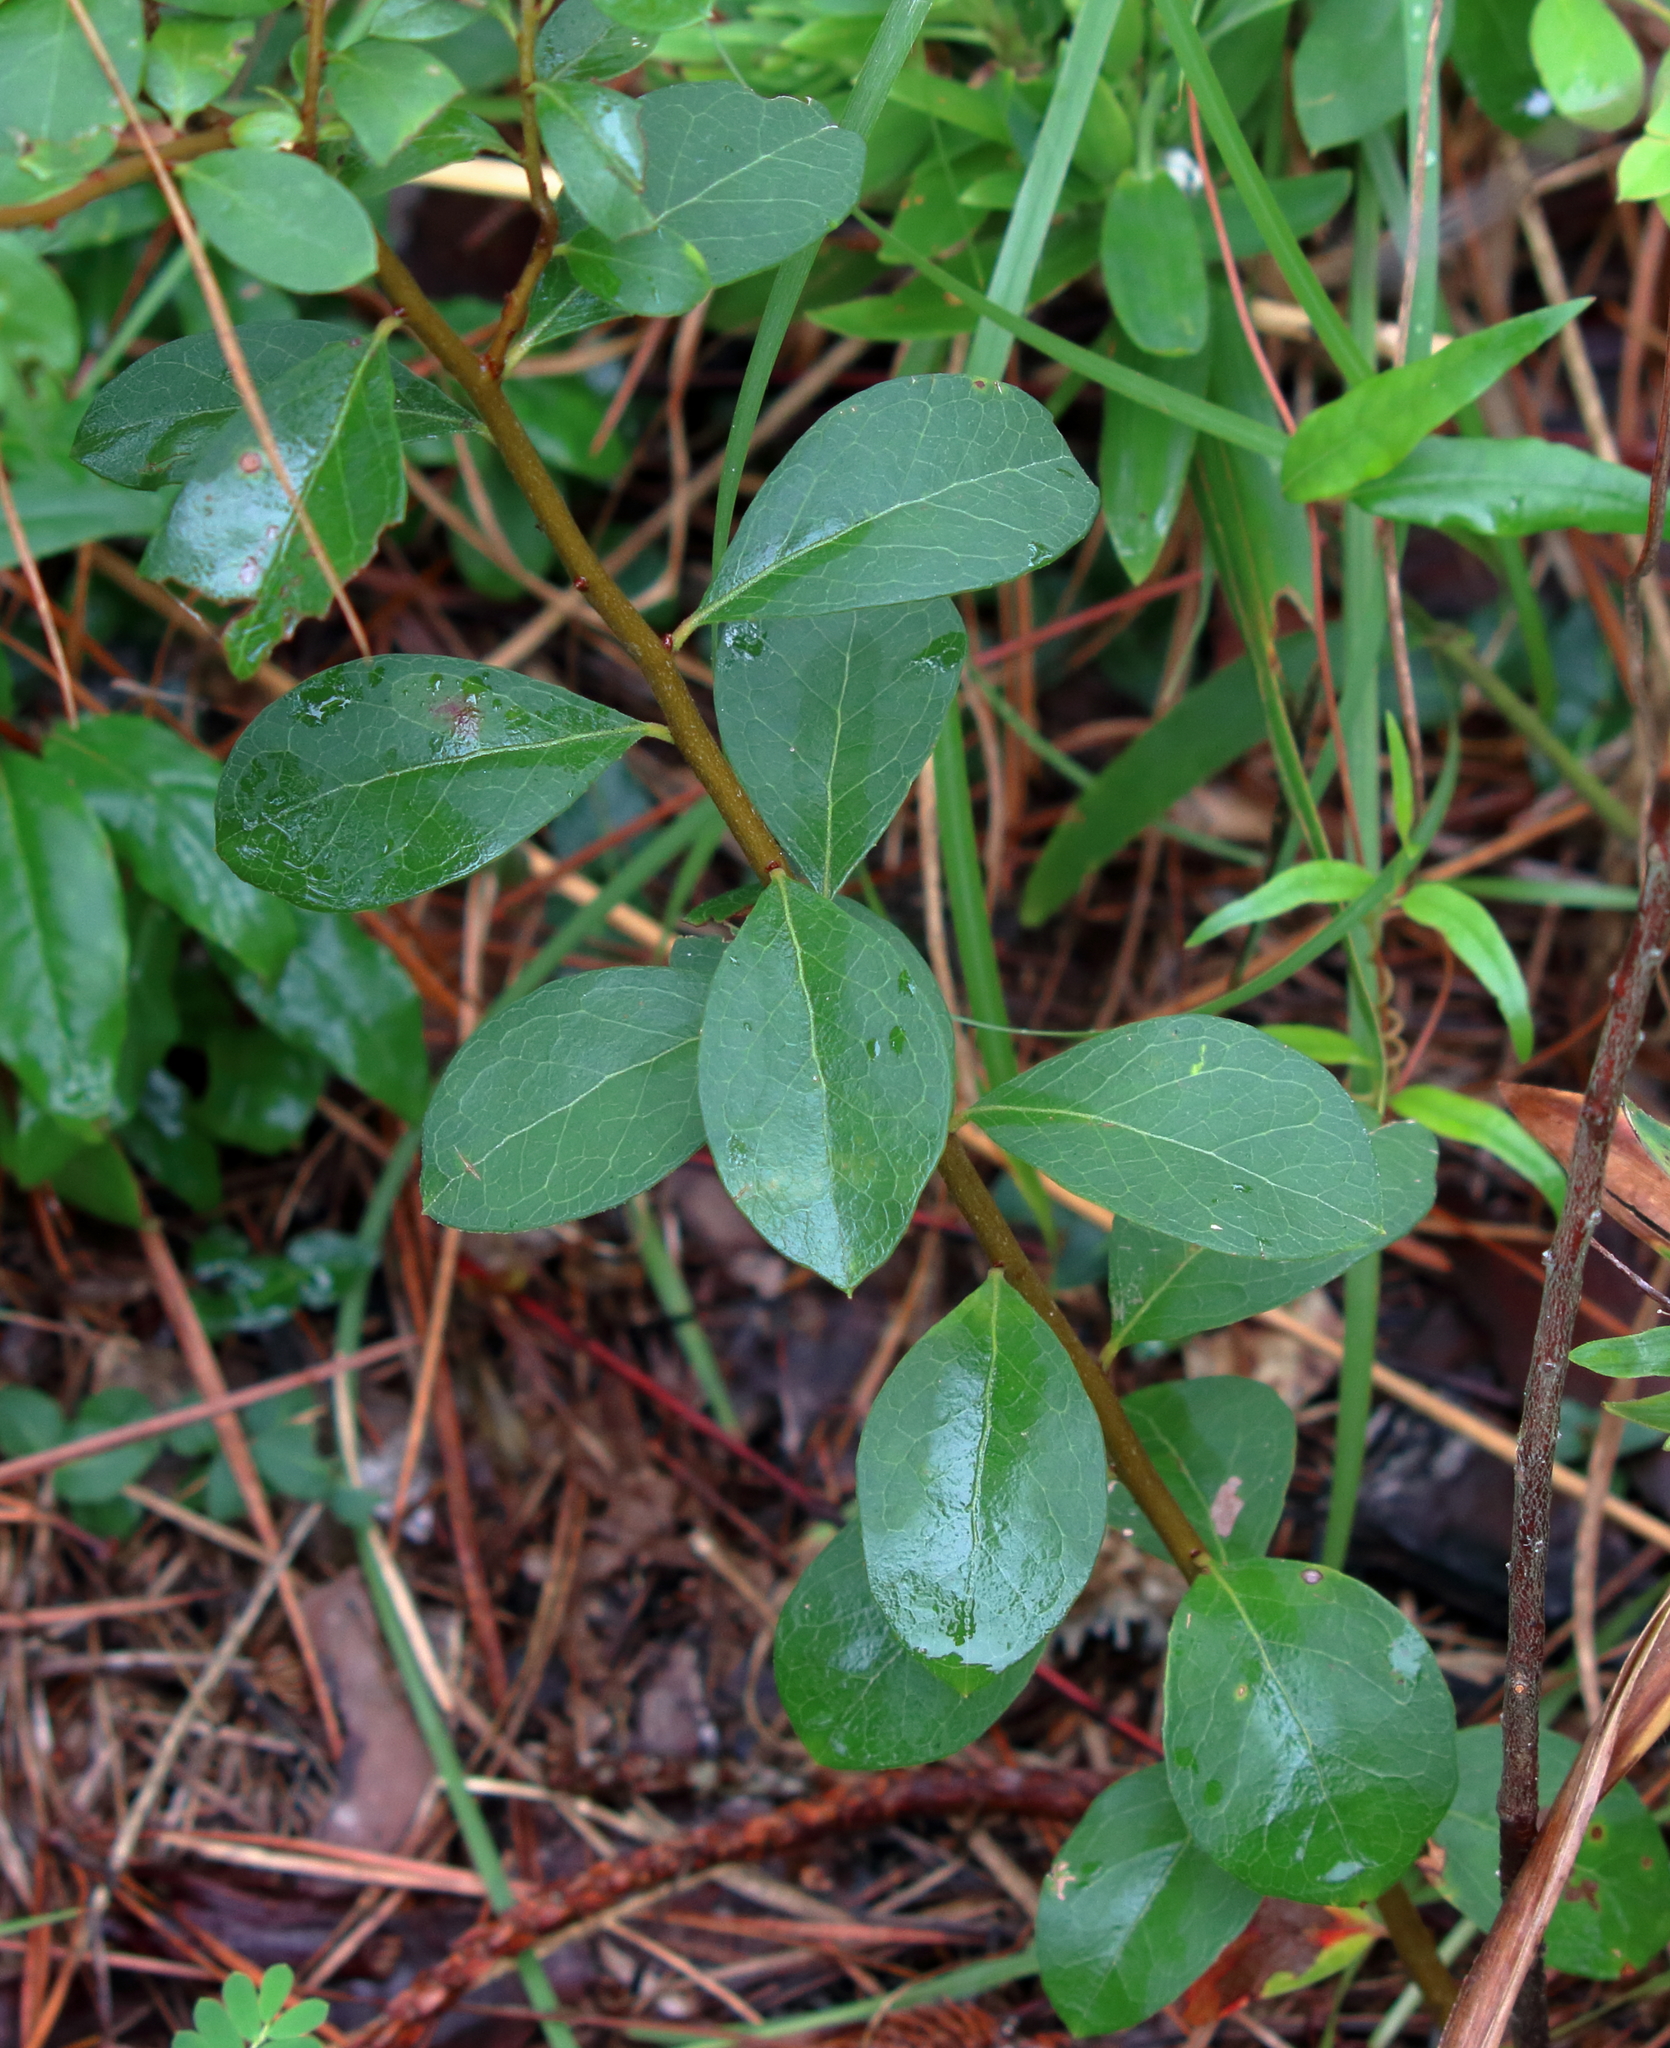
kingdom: Plantae
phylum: Tracheophyta
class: Magnoliopsida
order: Aquifoliales
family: Aquifoliaceae
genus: Ilex
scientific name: Ilex decidua
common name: Possum-haw
